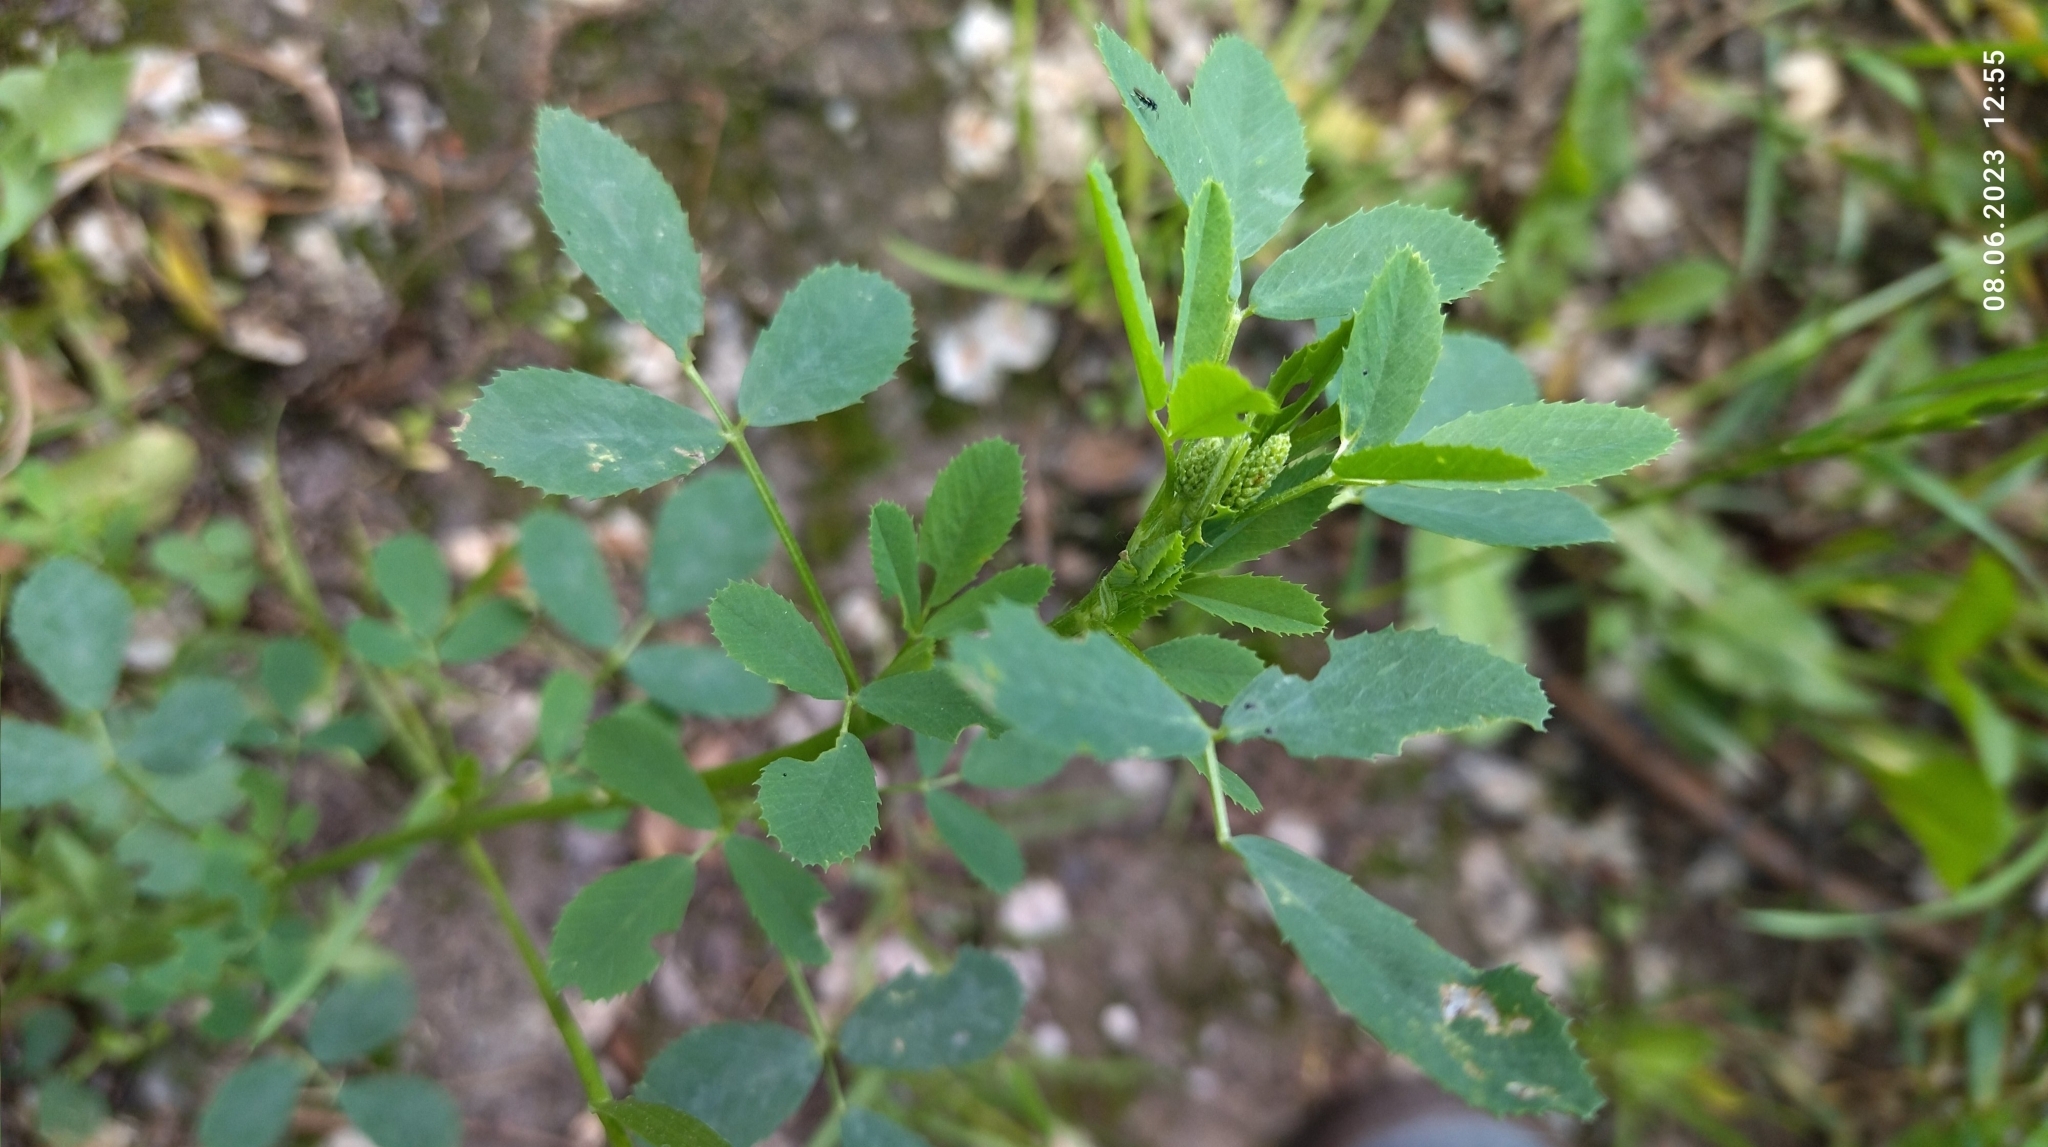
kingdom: Plantae
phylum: Tracheophyta
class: Magnoliopsida
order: Fabales
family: Fabaceae
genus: Melilotus
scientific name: Melilotus
